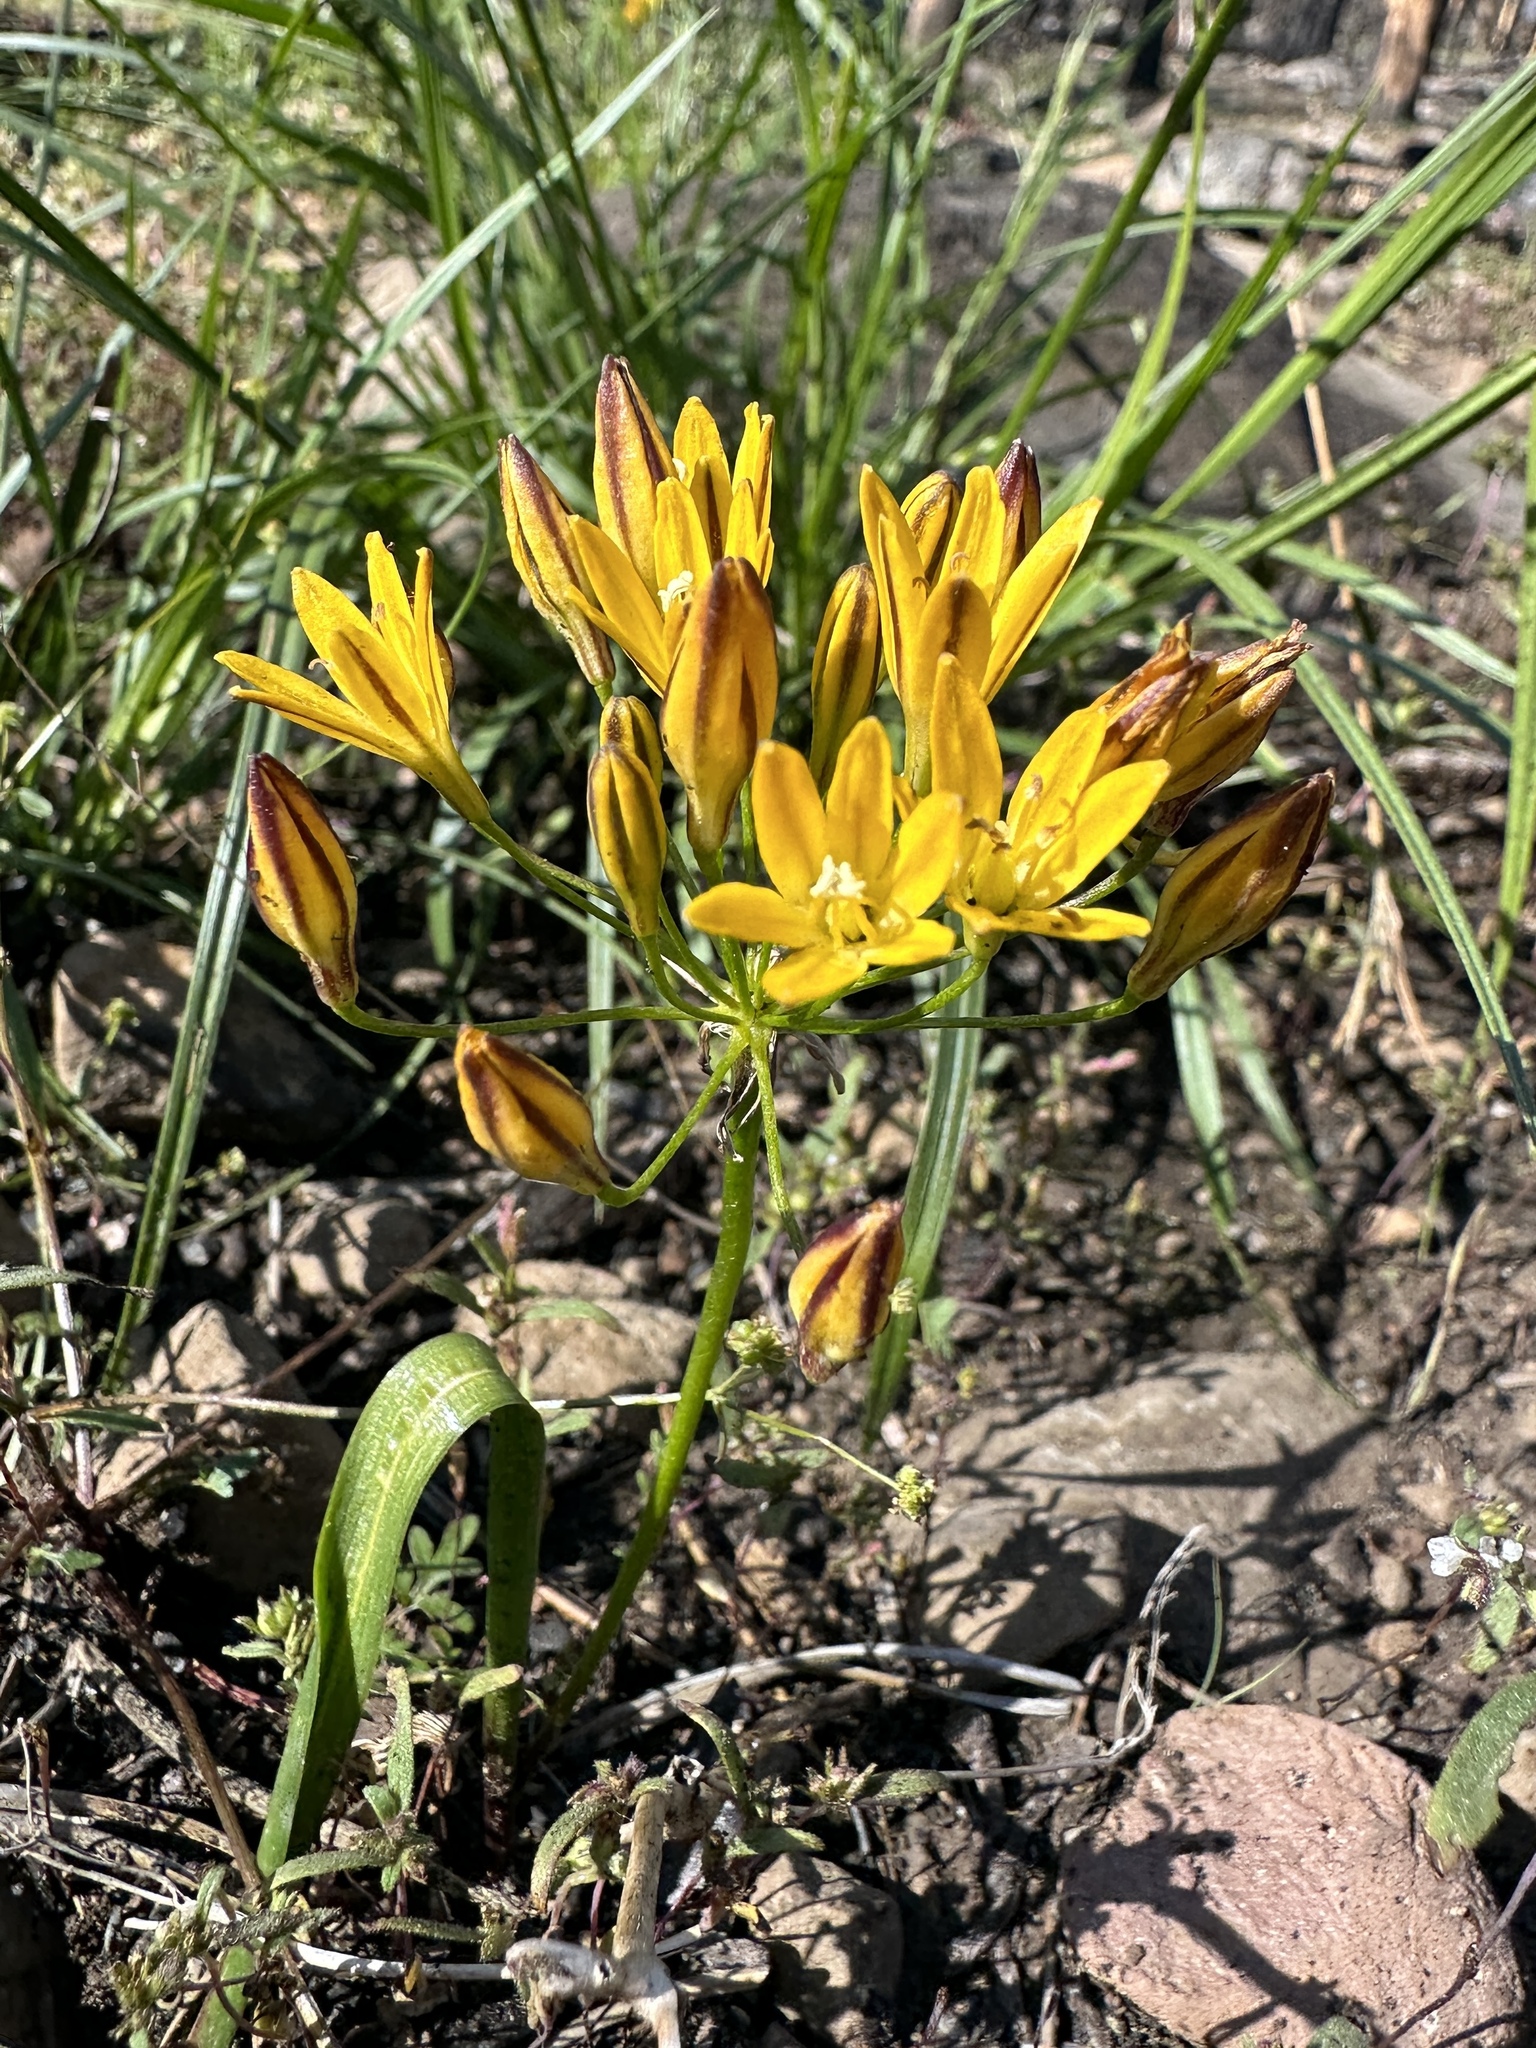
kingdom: Plantae
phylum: Tracheophyta
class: Liliopsida
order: Asparagales
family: Asparagaceae
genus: Triteleia
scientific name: Triteleia montana
